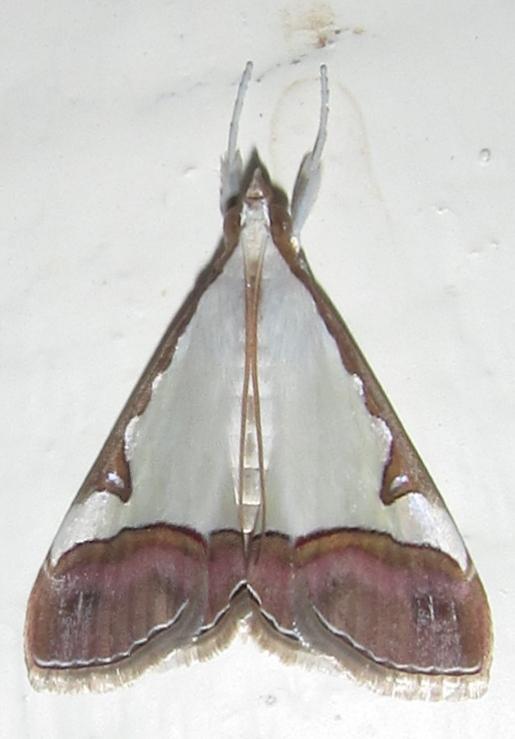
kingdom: Animalia
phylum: Arthropoda
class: Insecta
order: Lepidoptera
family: Crambidae
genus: Autocharis
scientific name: Autocharis margaritalis
